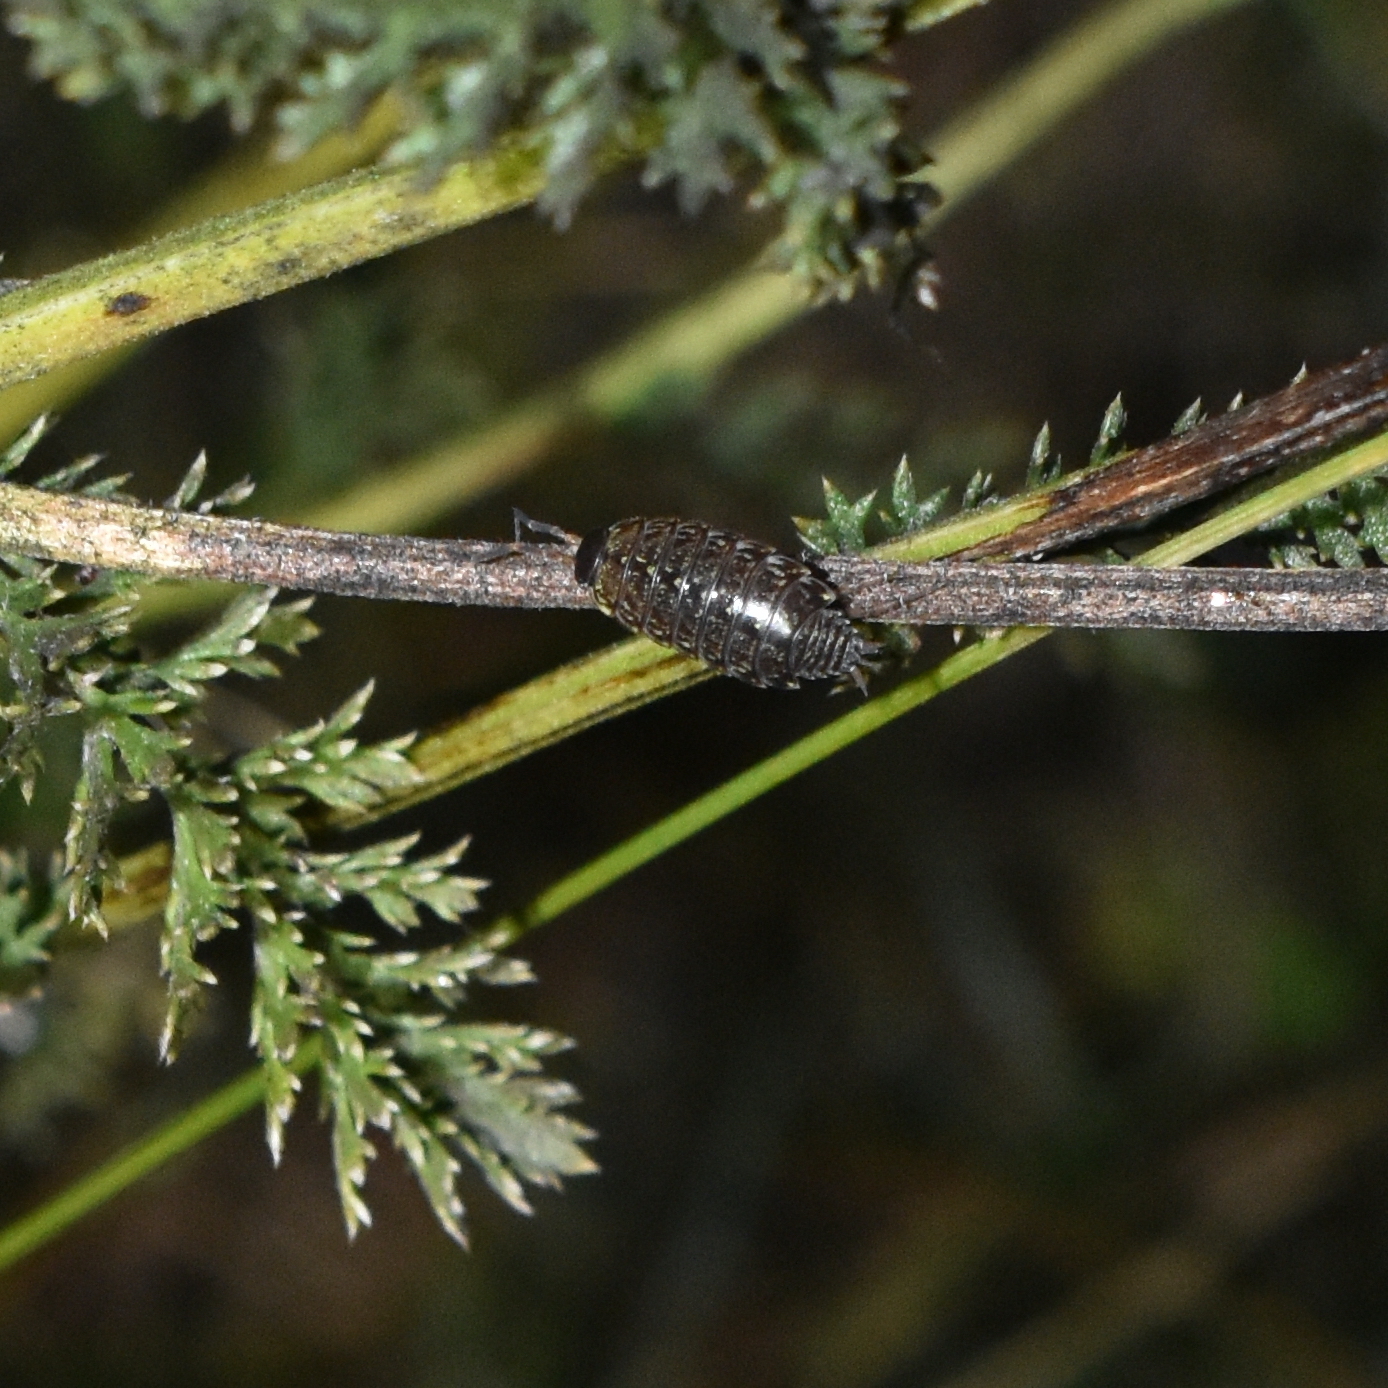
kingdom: Animalia
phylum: Arthropoda
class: Malacostraca
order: Isopoda
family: Philosciidae
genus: Philoscia
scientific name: Philoscia muscorum
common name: Common striped woodlouse
